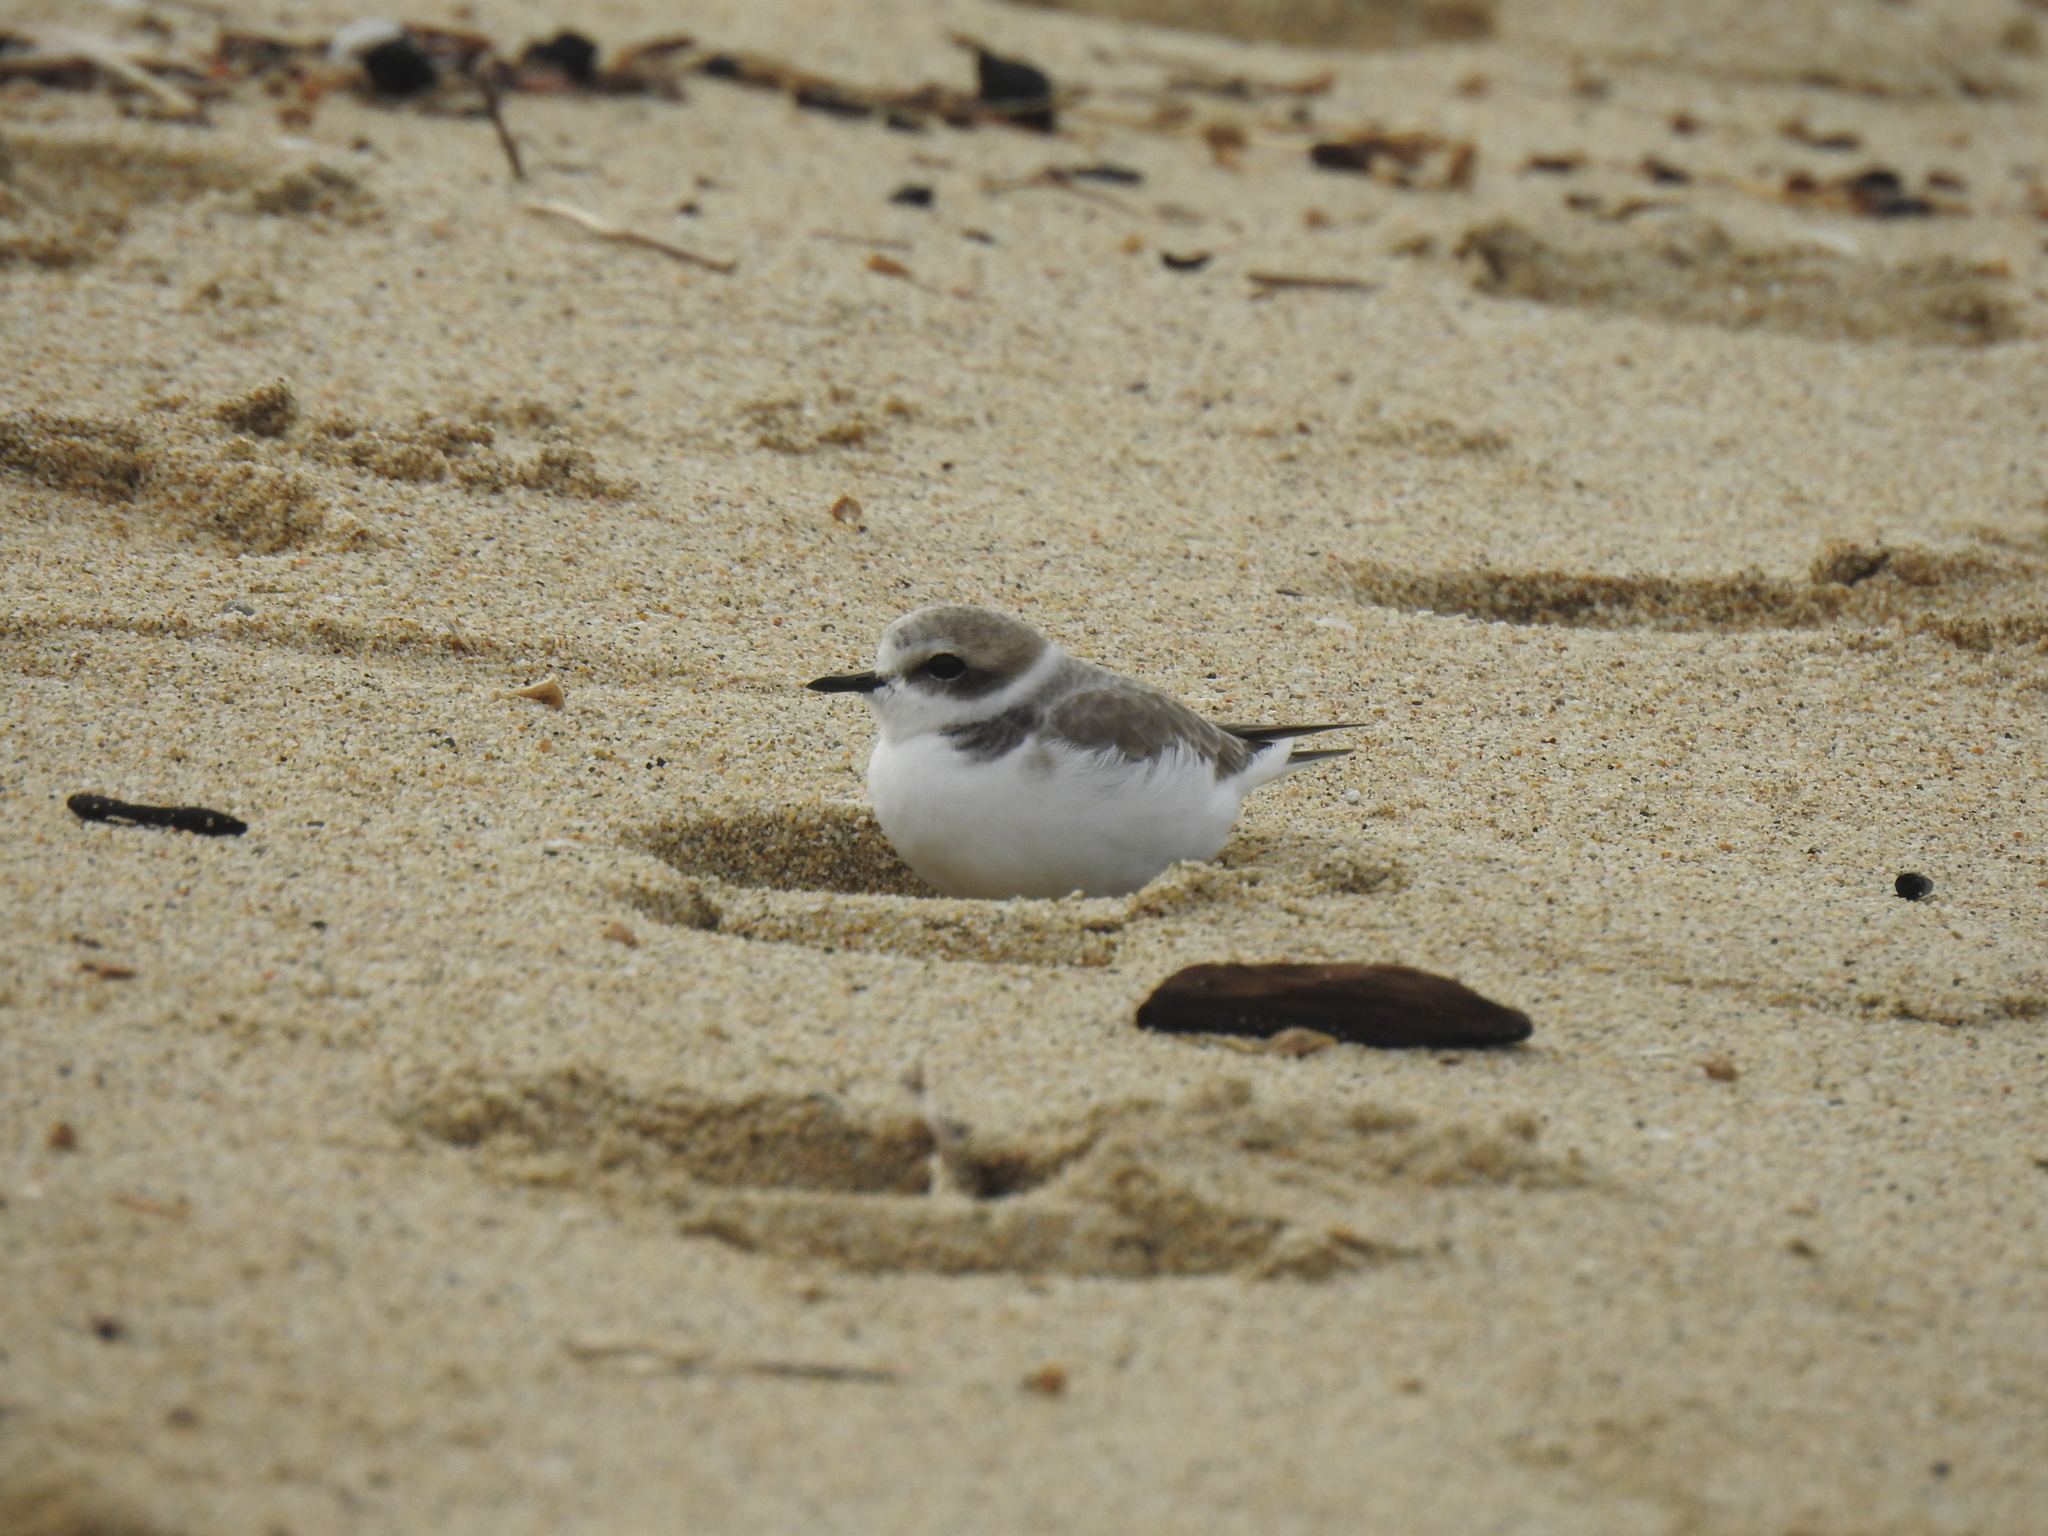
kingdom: Animalia
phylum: Chordata
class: Aves
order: Charadriiformes
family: Charadriidae
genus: Anarhynchus
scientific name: Anarhynchus
